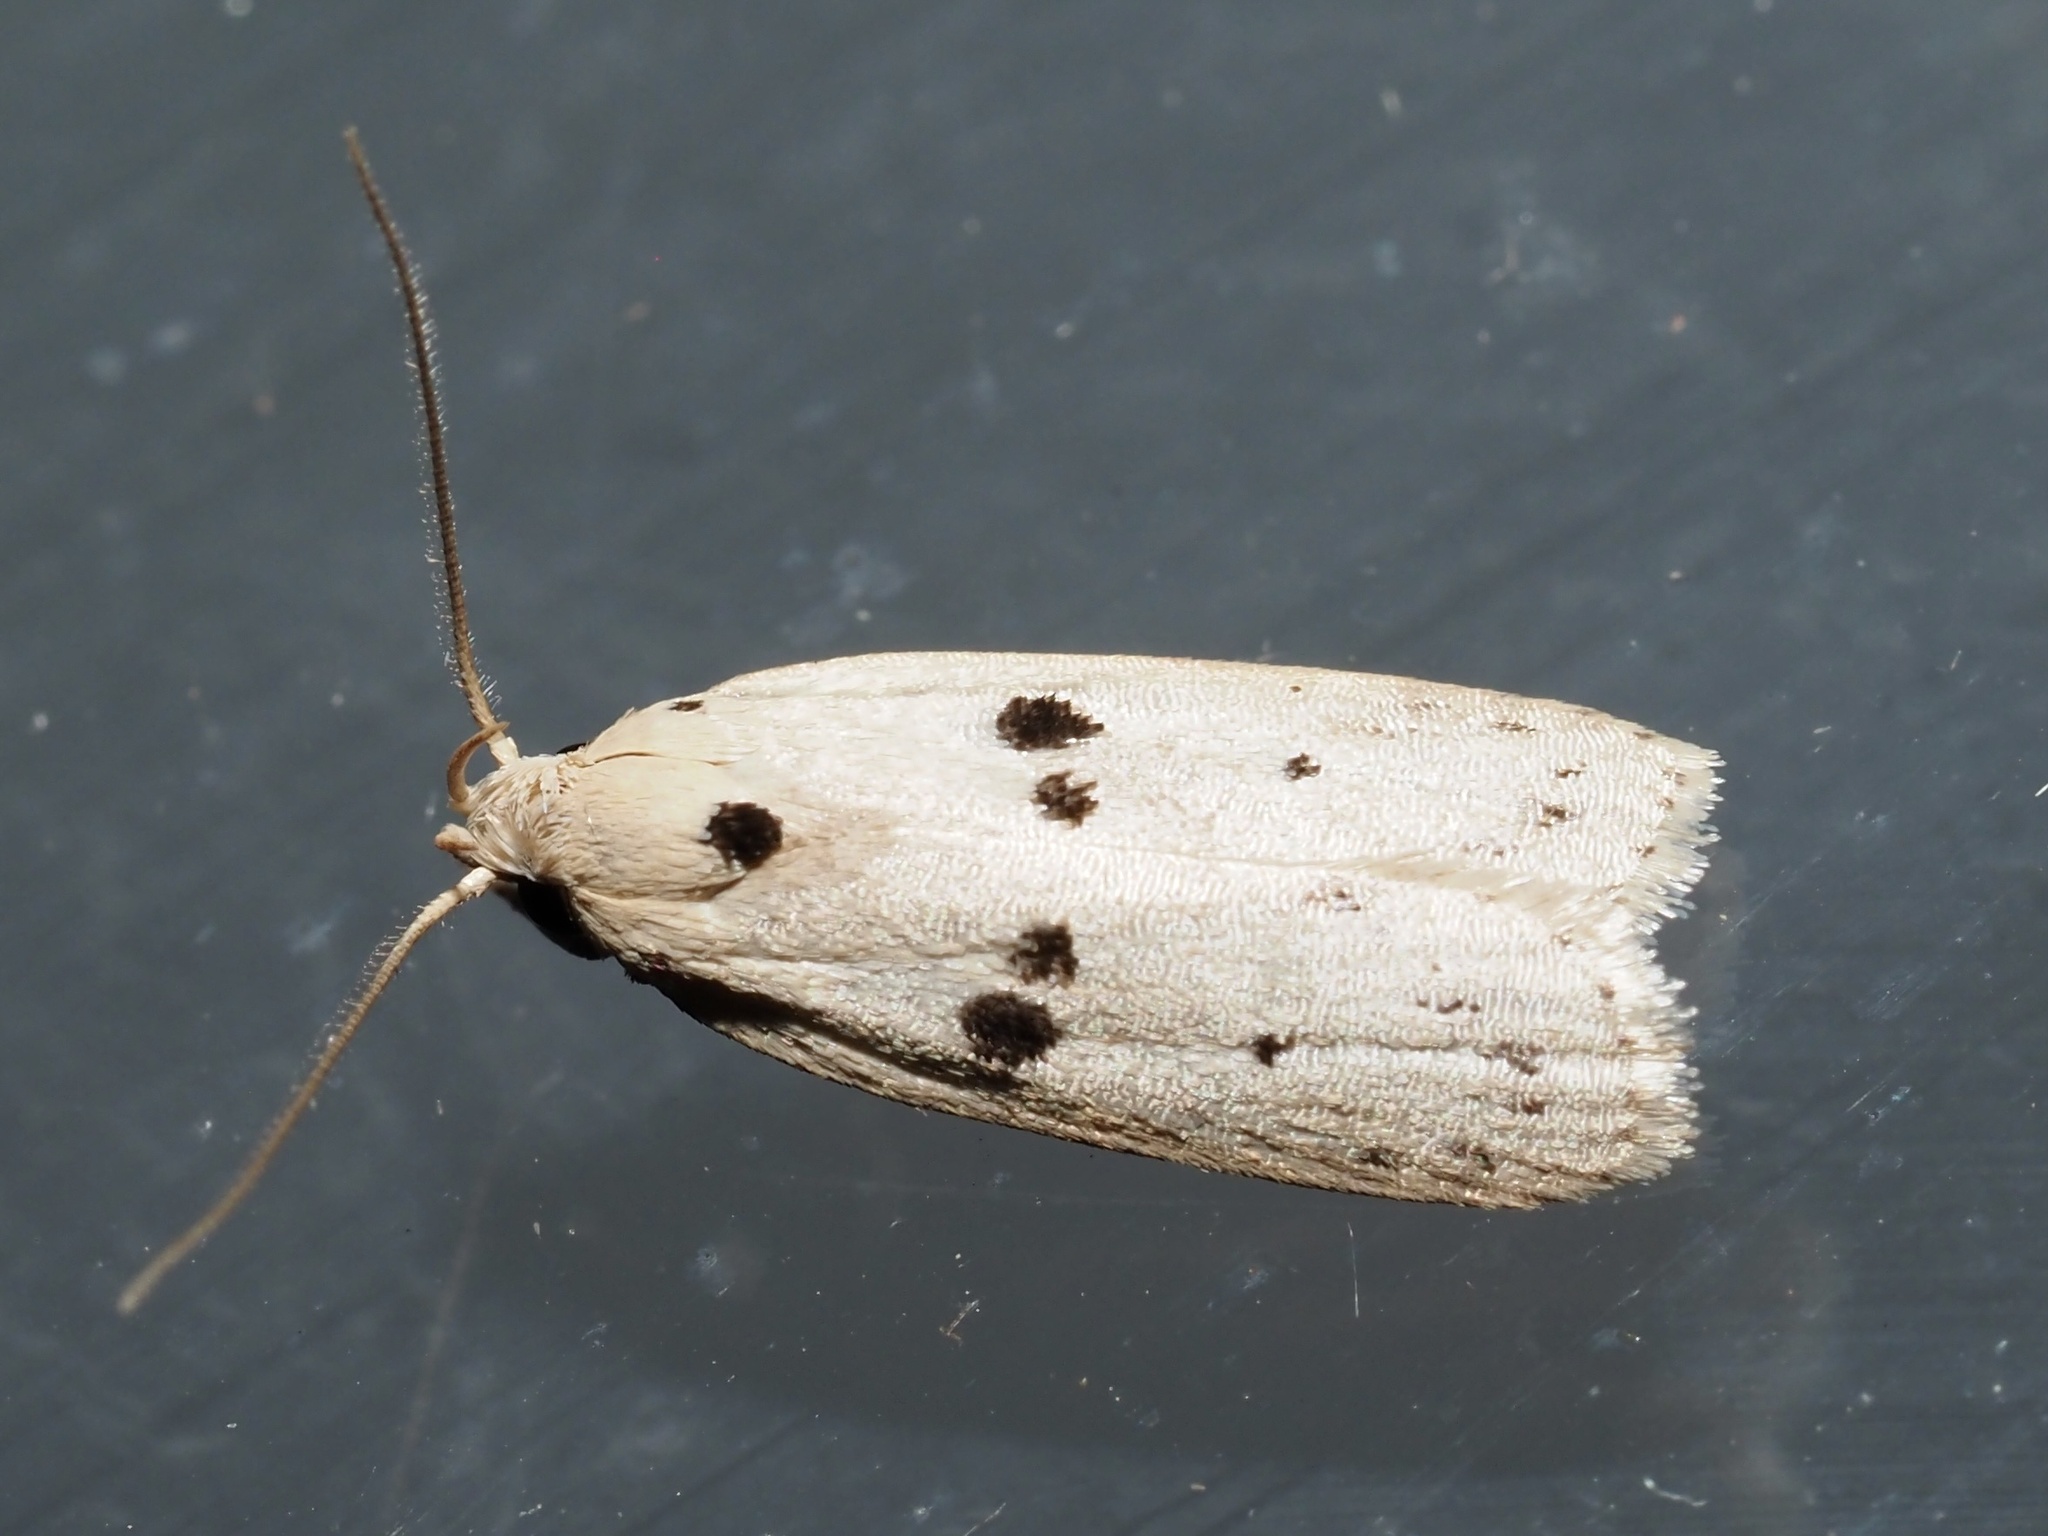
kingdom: Animalia
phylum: Arthropoda
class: Insecta
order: Lepidoptera
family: Peleopodidae
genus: Scythropiodes
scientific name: Scythropiodes issikii
